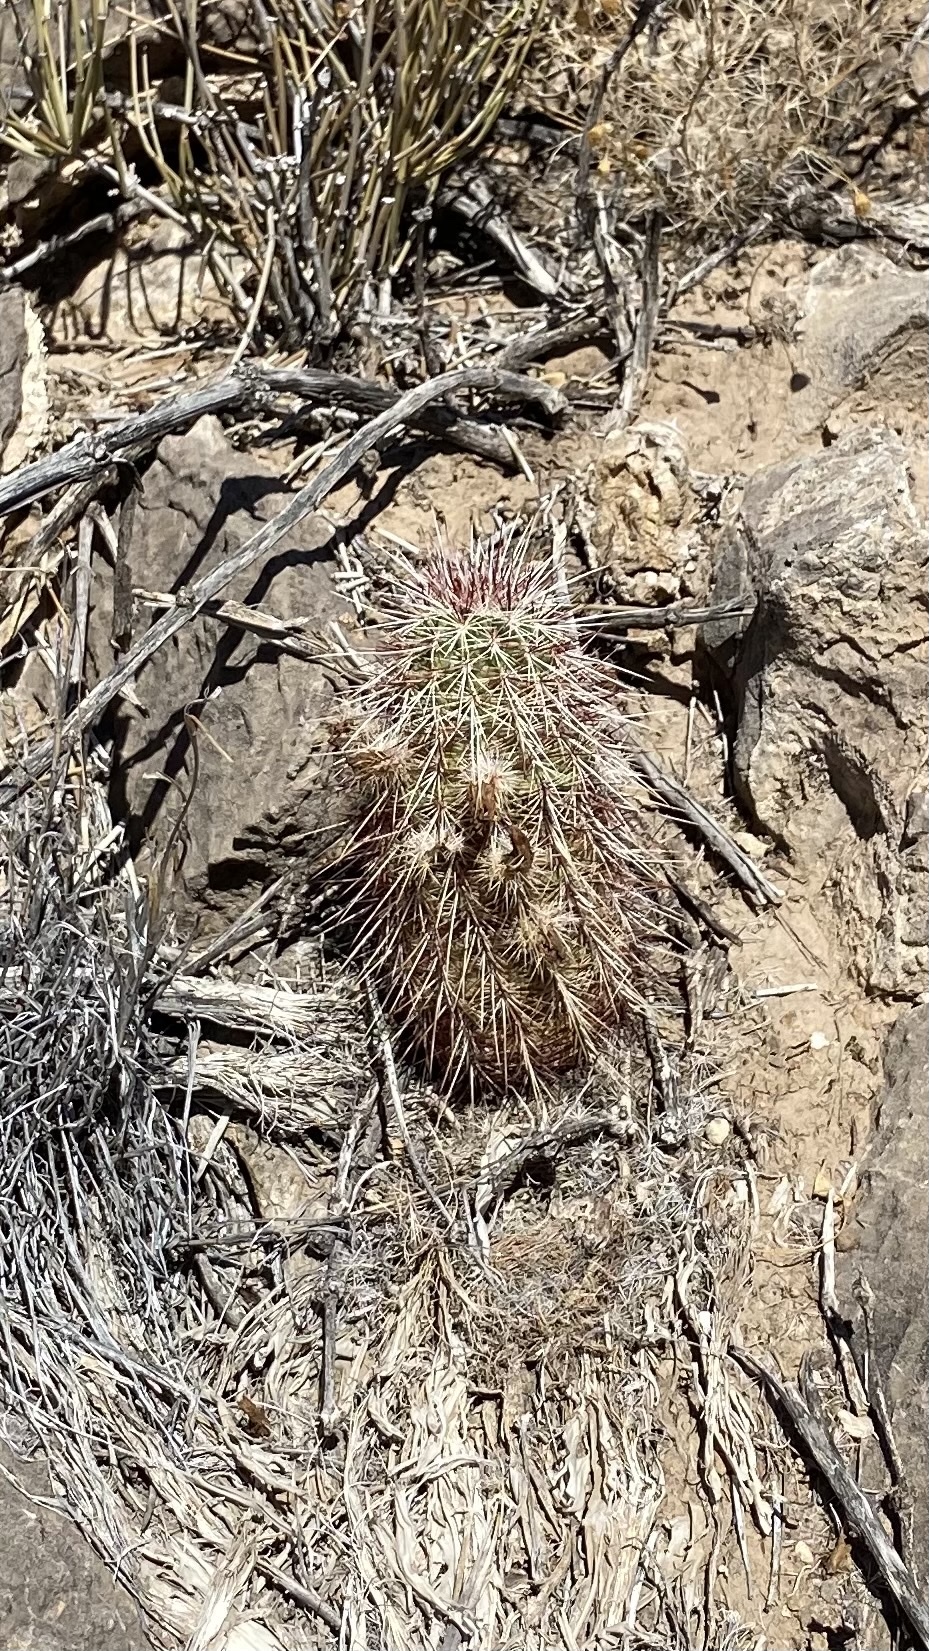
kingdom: Plantae
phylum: Tracheophyta
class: Magnoliopsida
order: Caryophyllales
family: Cactaceae
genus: Echinocereus
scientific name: Echinocereus viridiflorus
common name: Nylon hedgehog cactus
